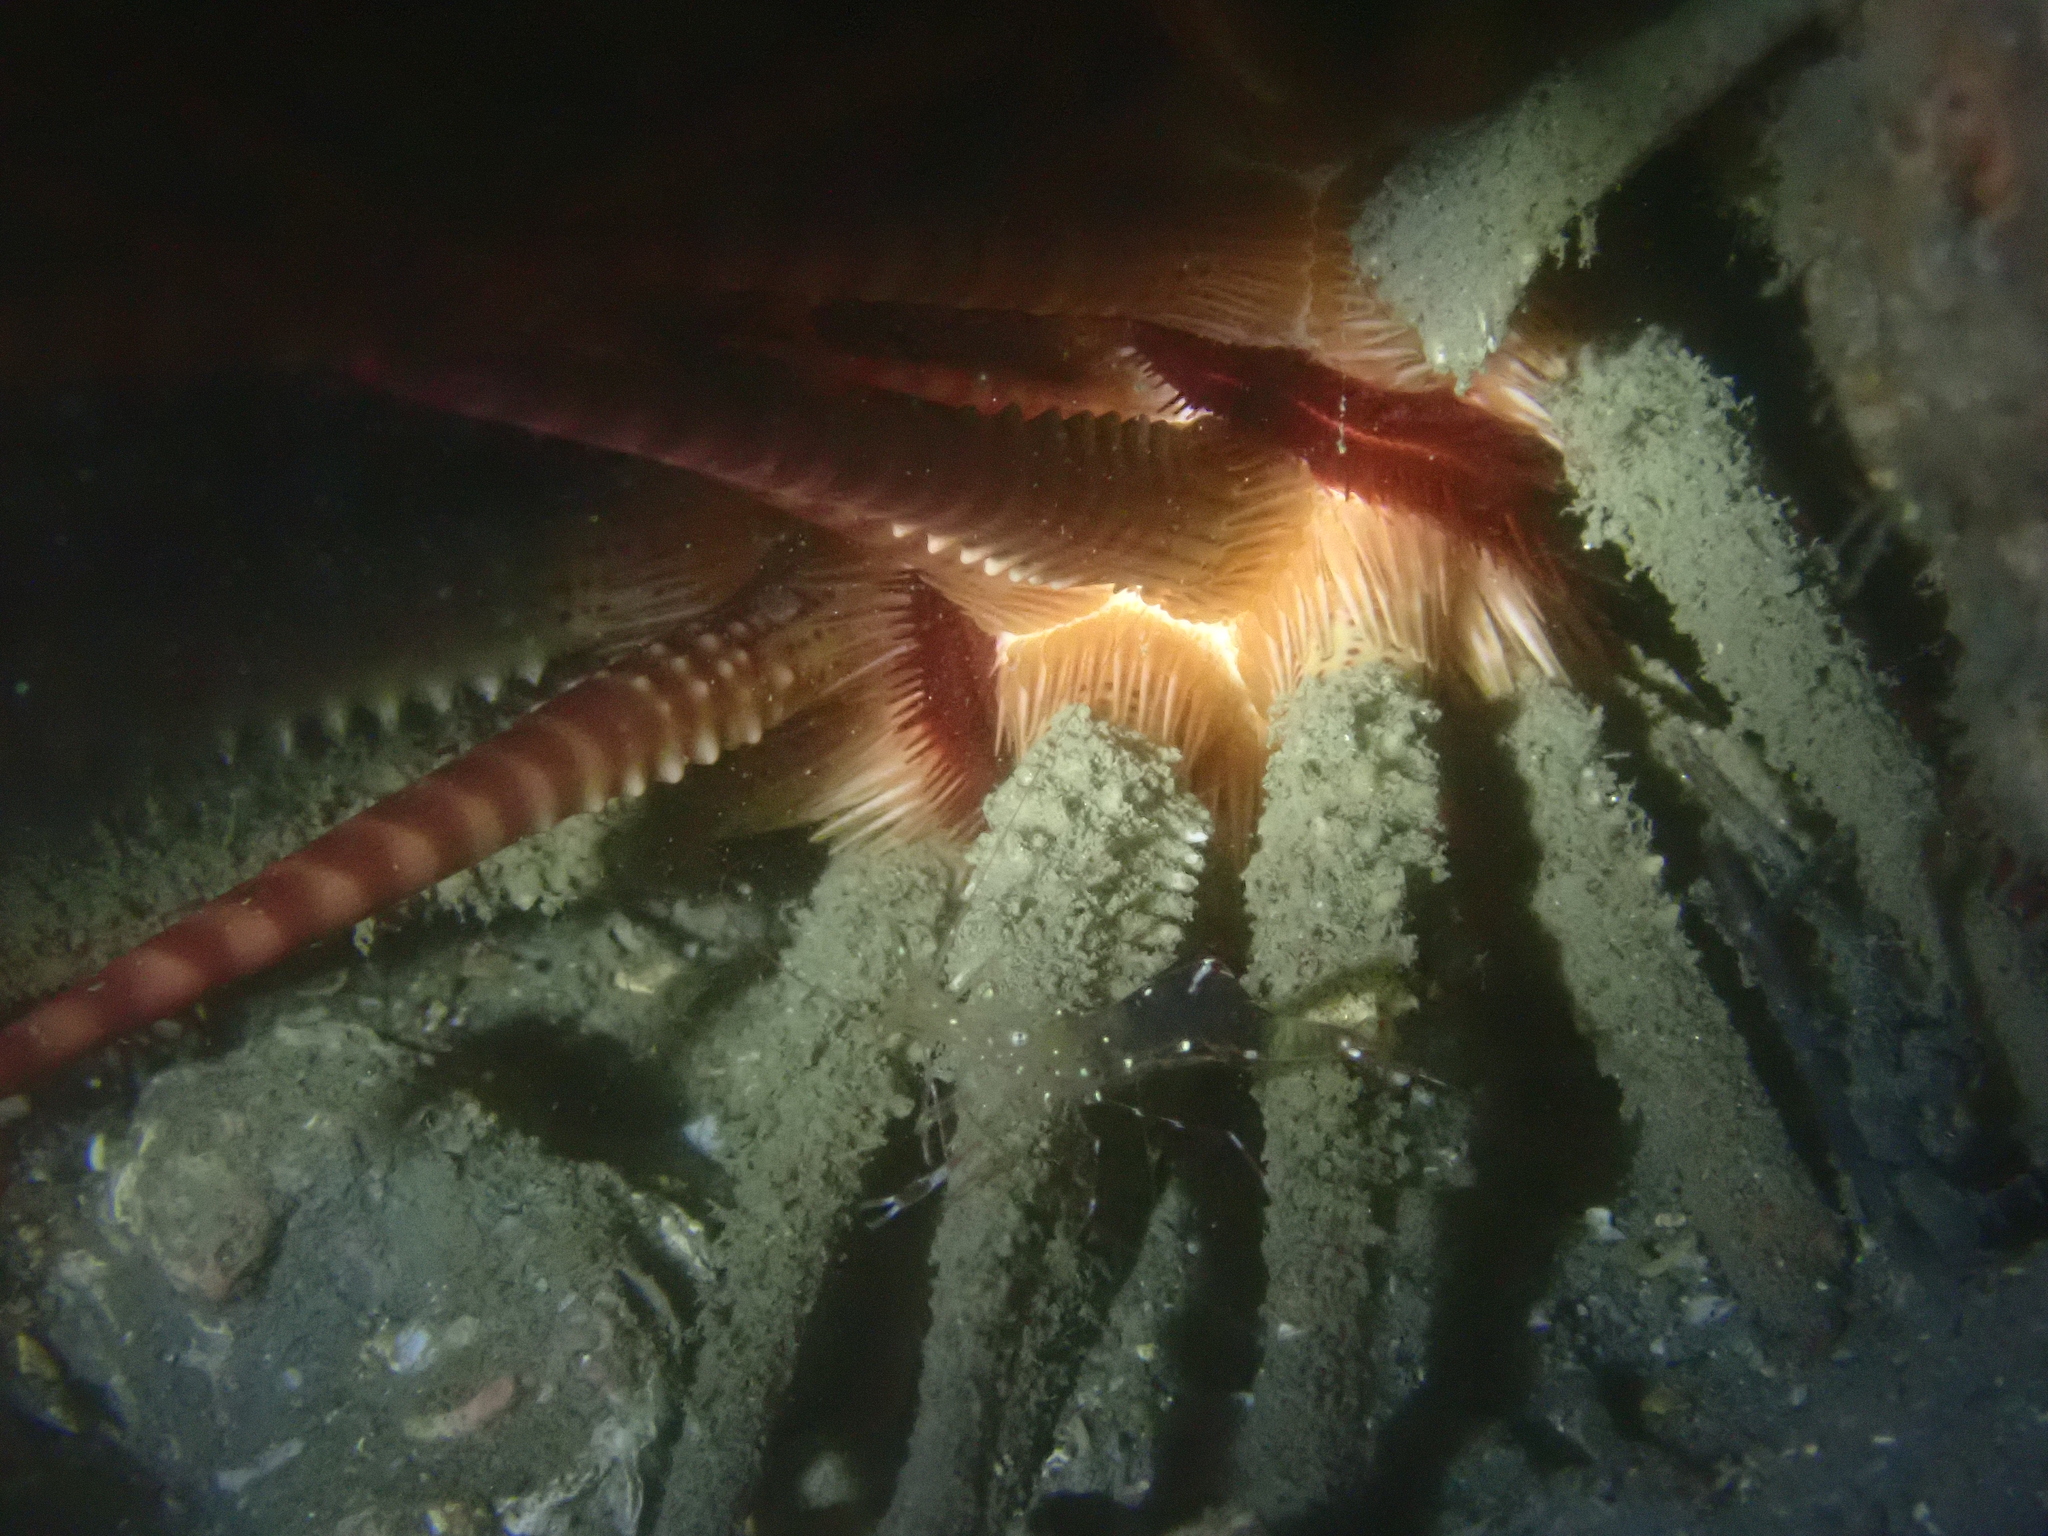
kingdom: Animalia
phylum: Echinodermata
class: Echinoidea
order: Cidaroida
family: Cidaridae
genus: Prionocidaris
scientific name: Prionocidaris baculosa
